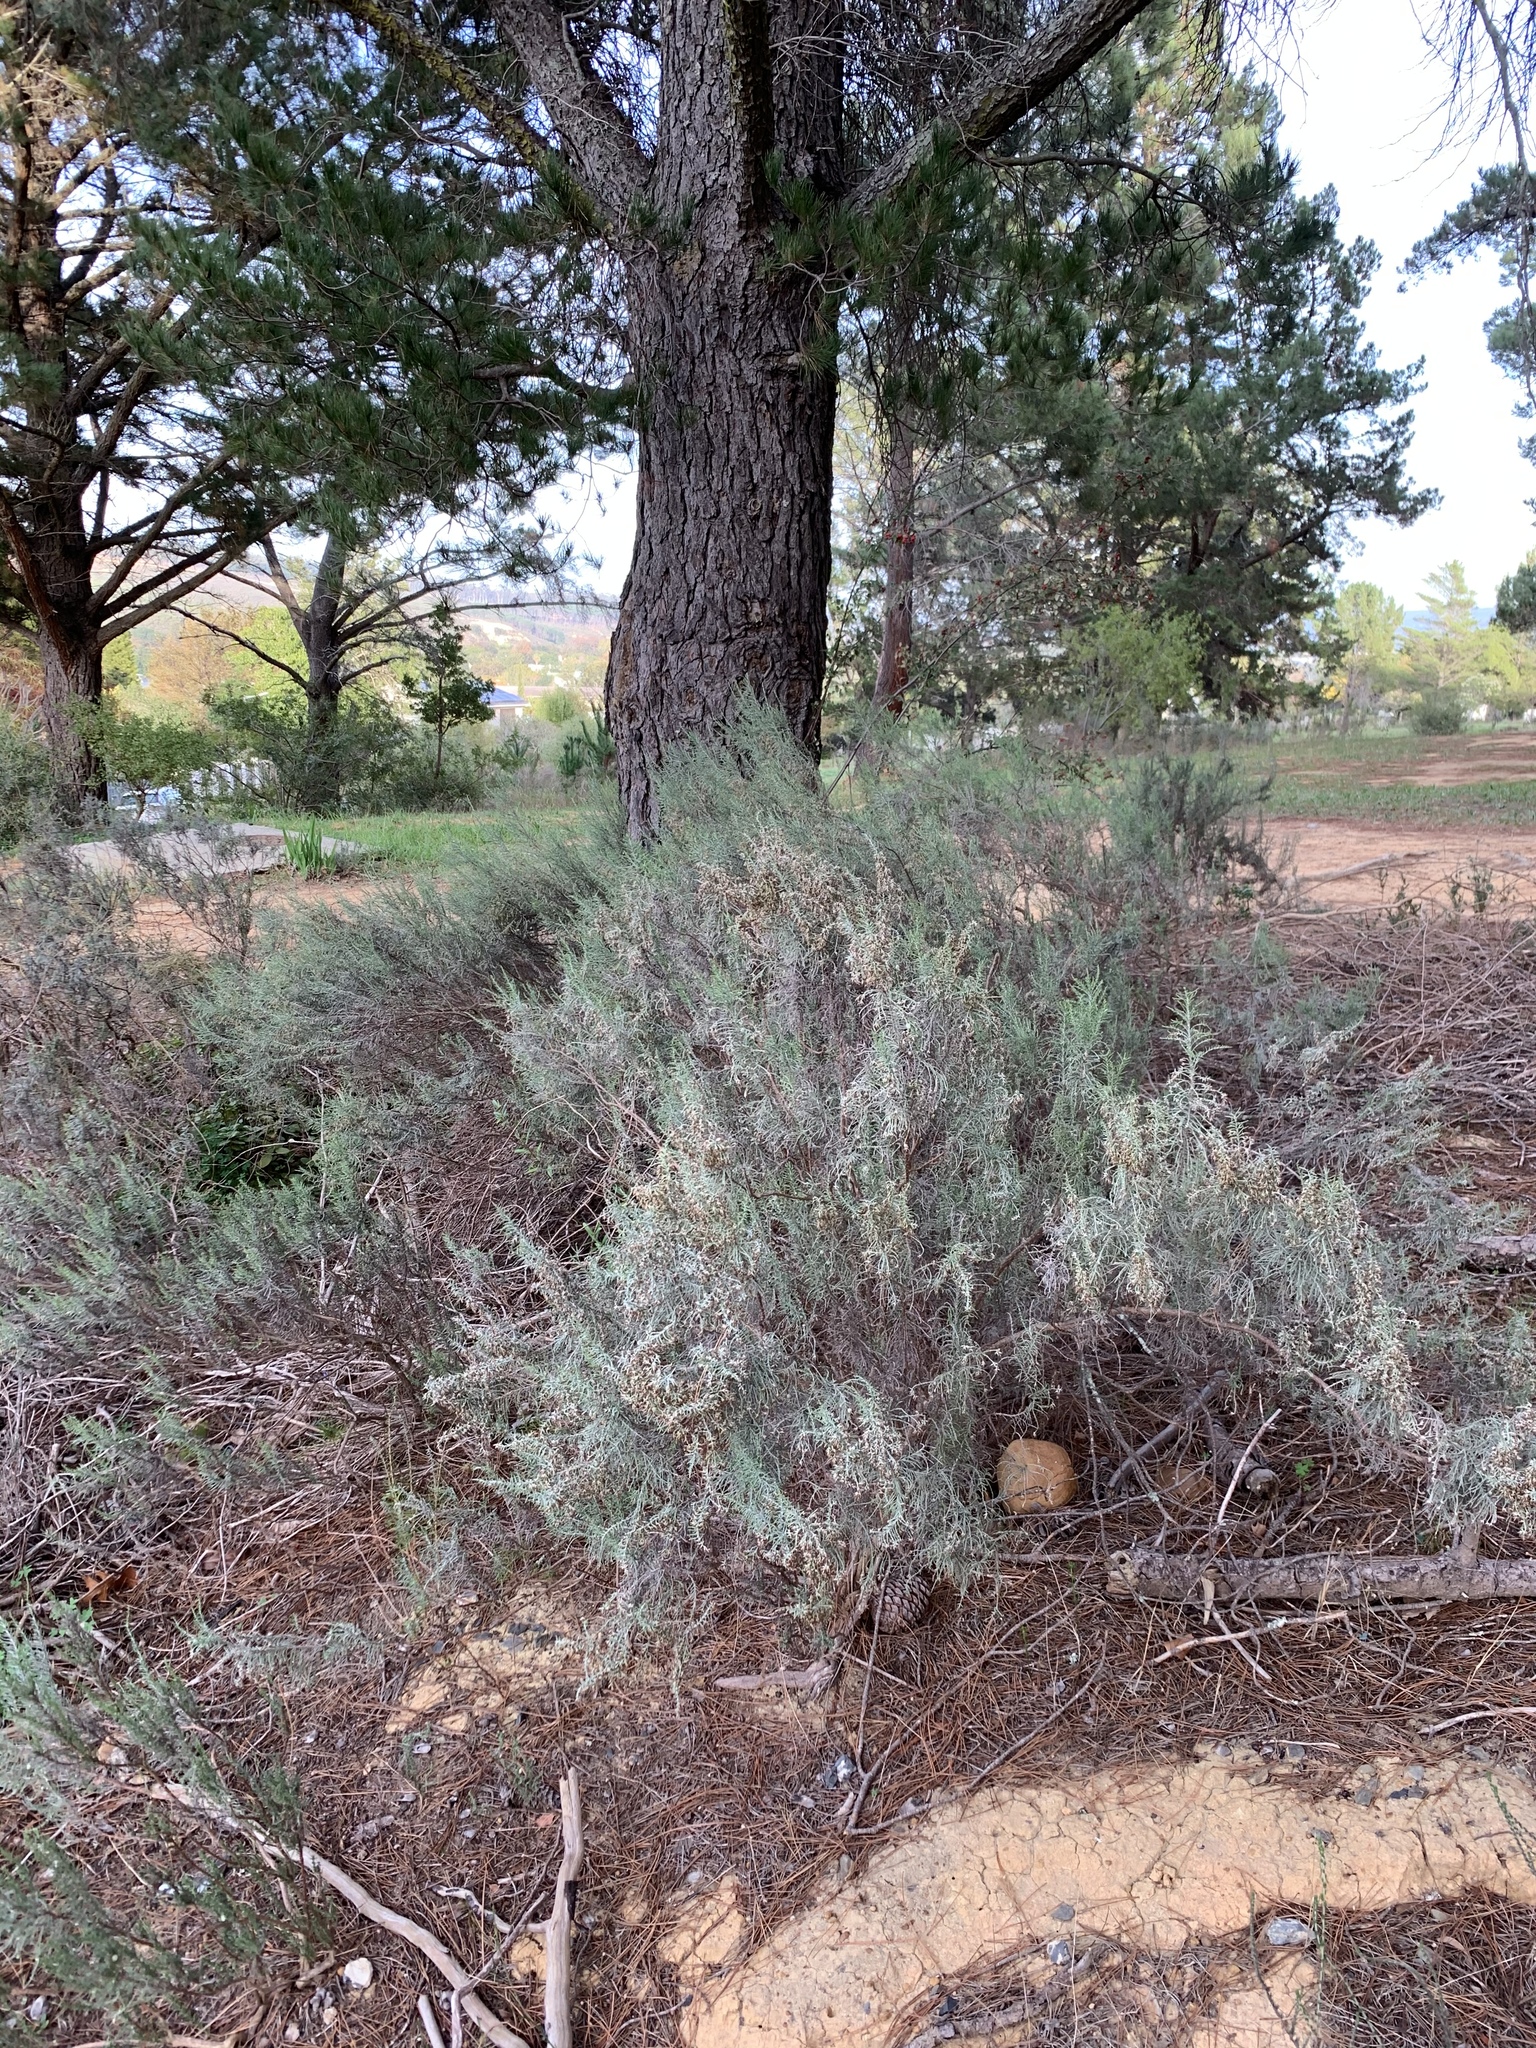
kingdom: Plantae
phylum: Tracheophyta
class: Magnoliopsida
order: Asterales
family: Asteraceae
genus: Dicerothamnus
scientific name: Dicerothamnus rhinocerotis
